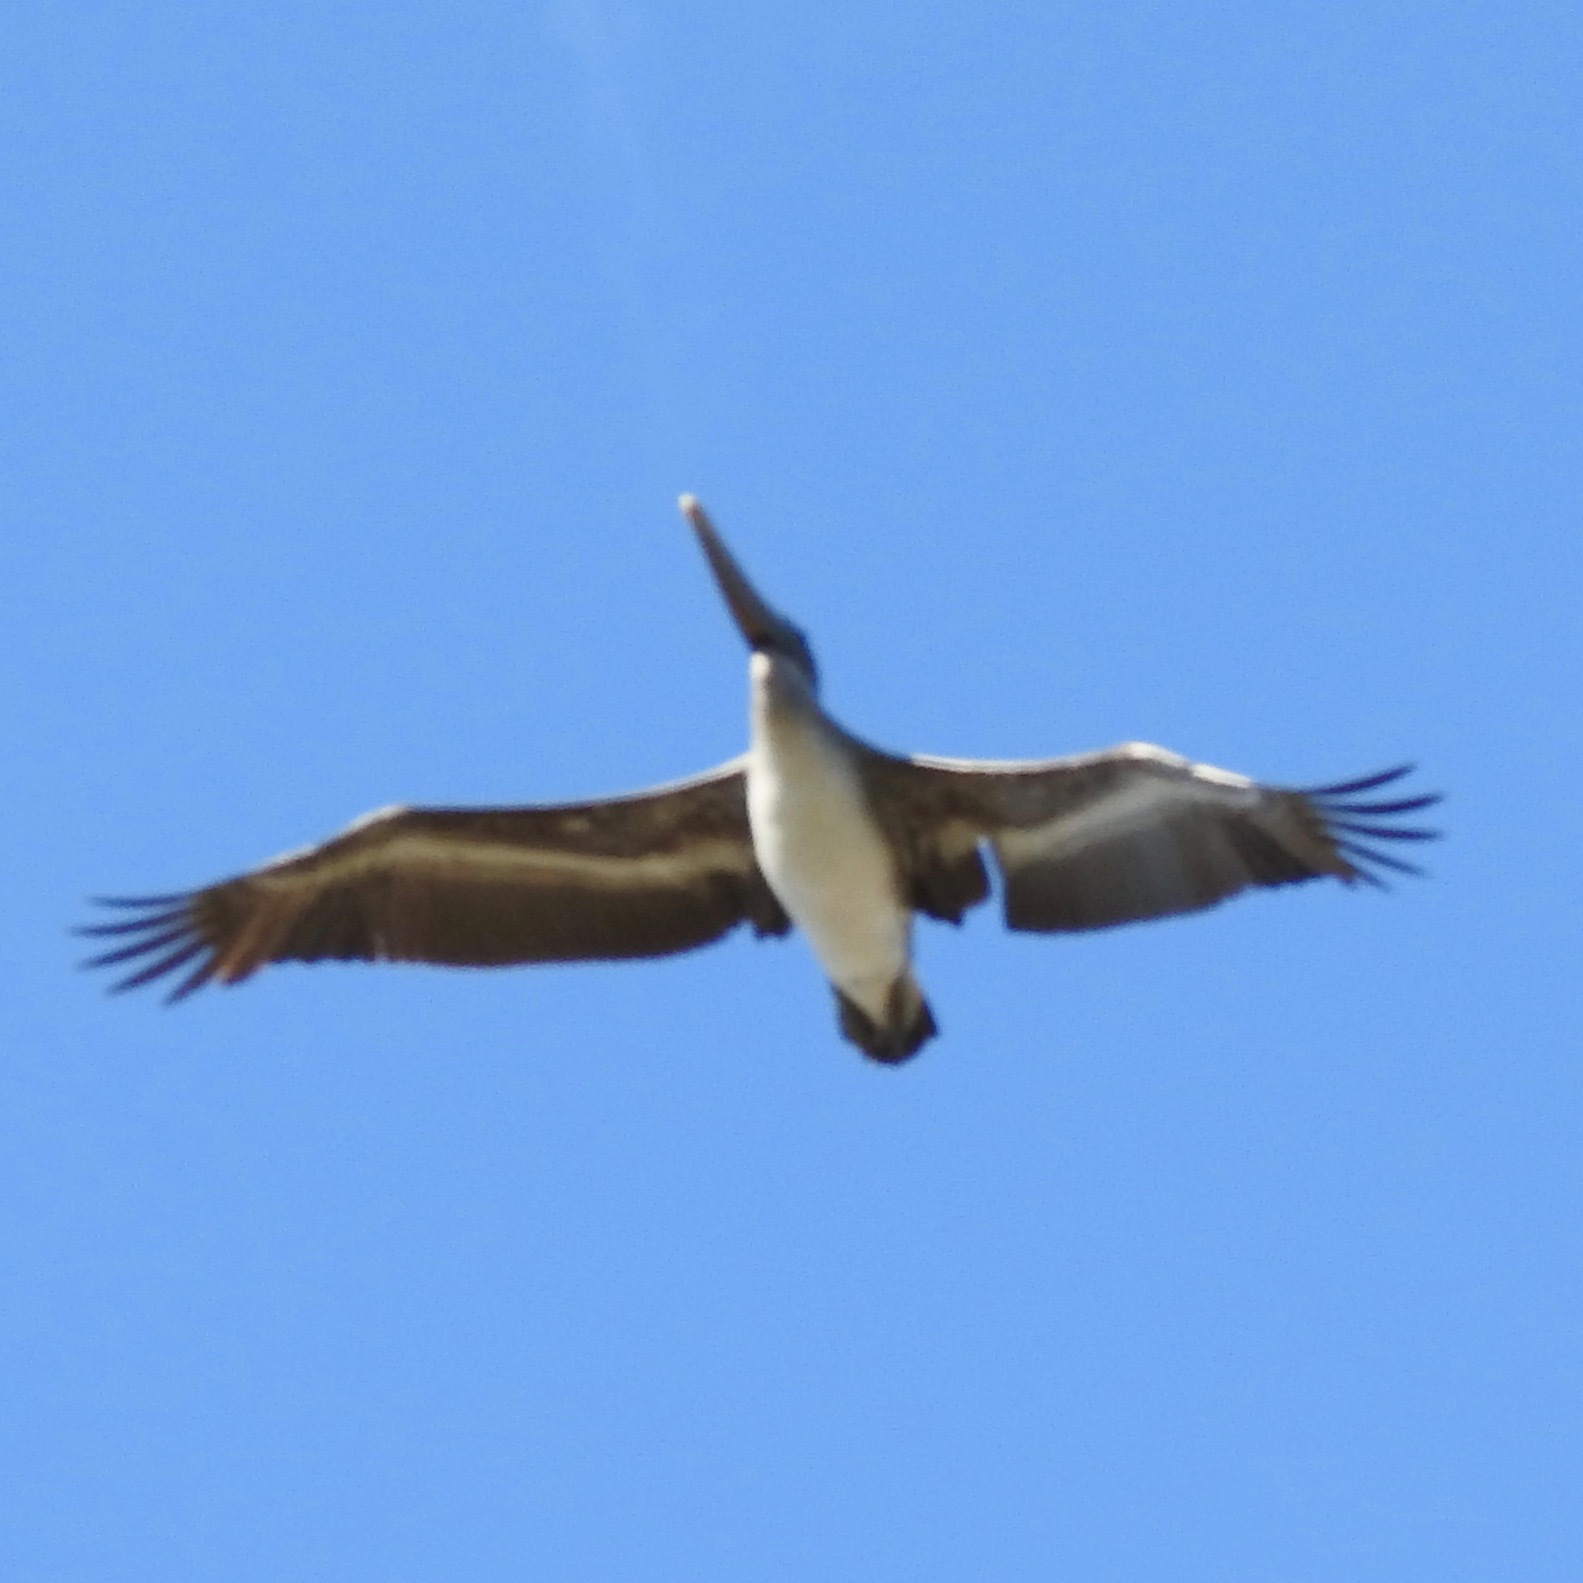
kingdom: Animalia
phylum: Chordata
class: Aves
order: Pelecaniformes
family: Pelecanidae
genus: Pelecanus
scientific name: Pelecanus occidentalis
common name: Brown pelican
